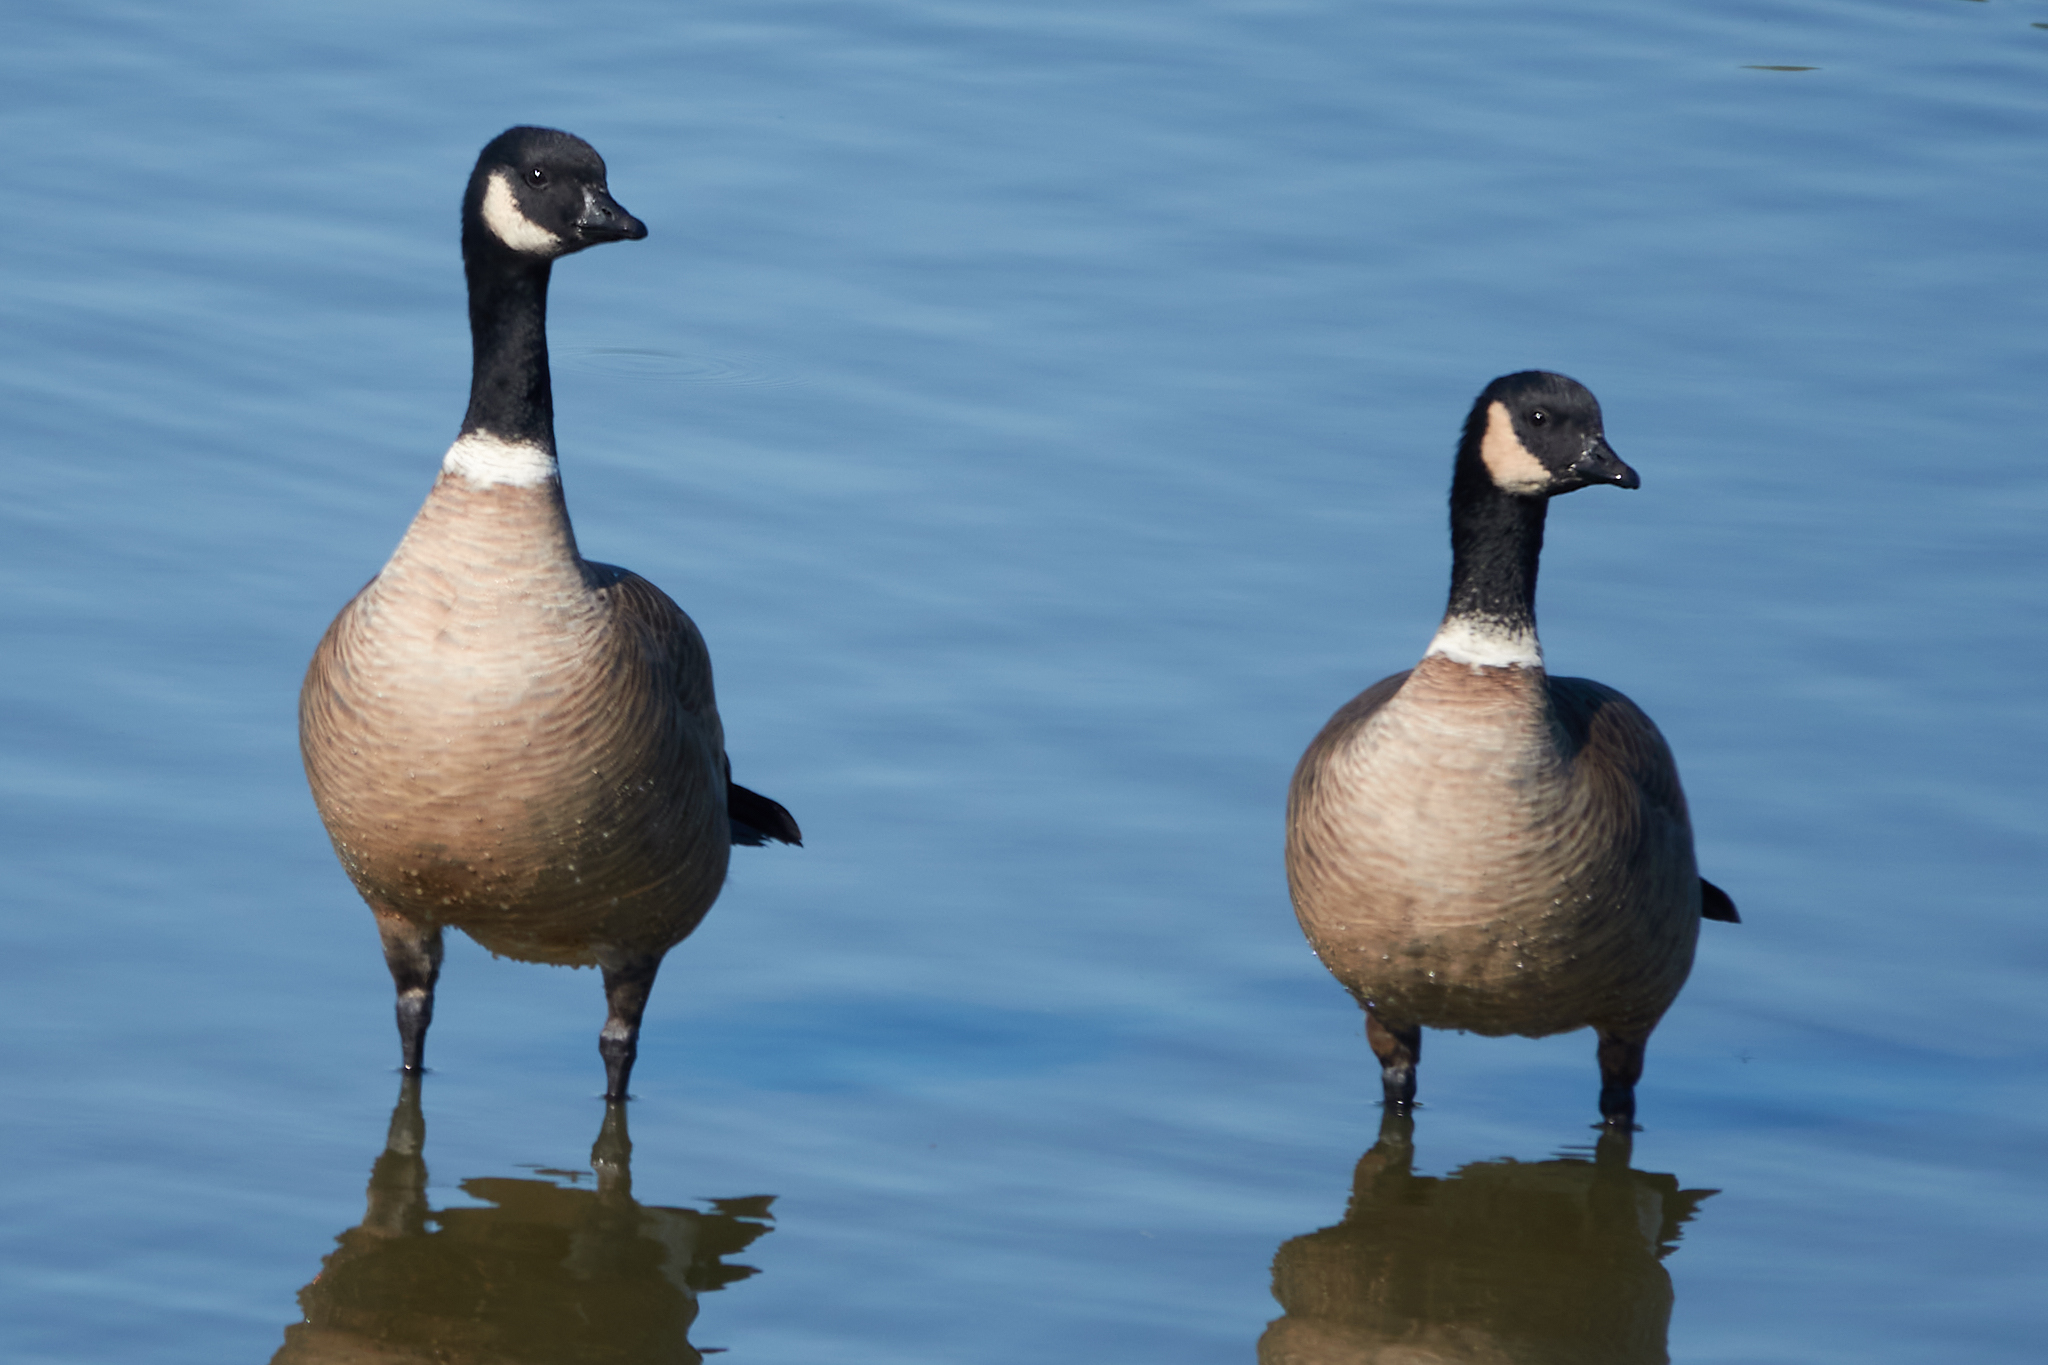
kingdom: Animalia
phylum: Chordata
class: Aves
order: Anseriformes
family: Anatidae
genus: Branta
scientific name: Branta hutchinsii
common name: Cackling goose
